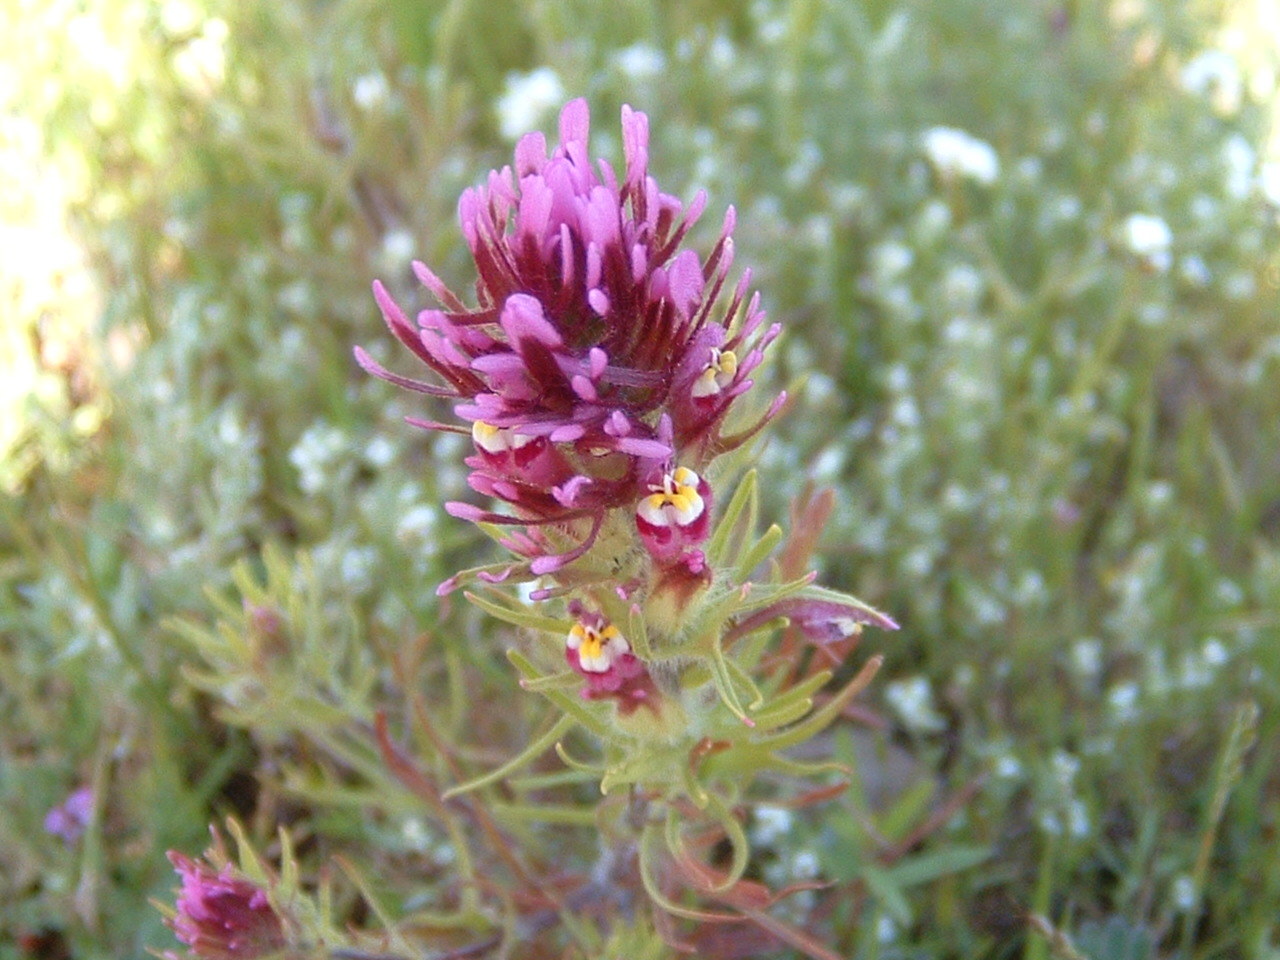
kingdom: Plantae
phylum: Tracheophyta
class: Magnoliopsida
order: Lamiales
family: Orobanchaceae
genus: Castilleja
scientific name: Castilleja exserta
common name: Purple owl-clover
